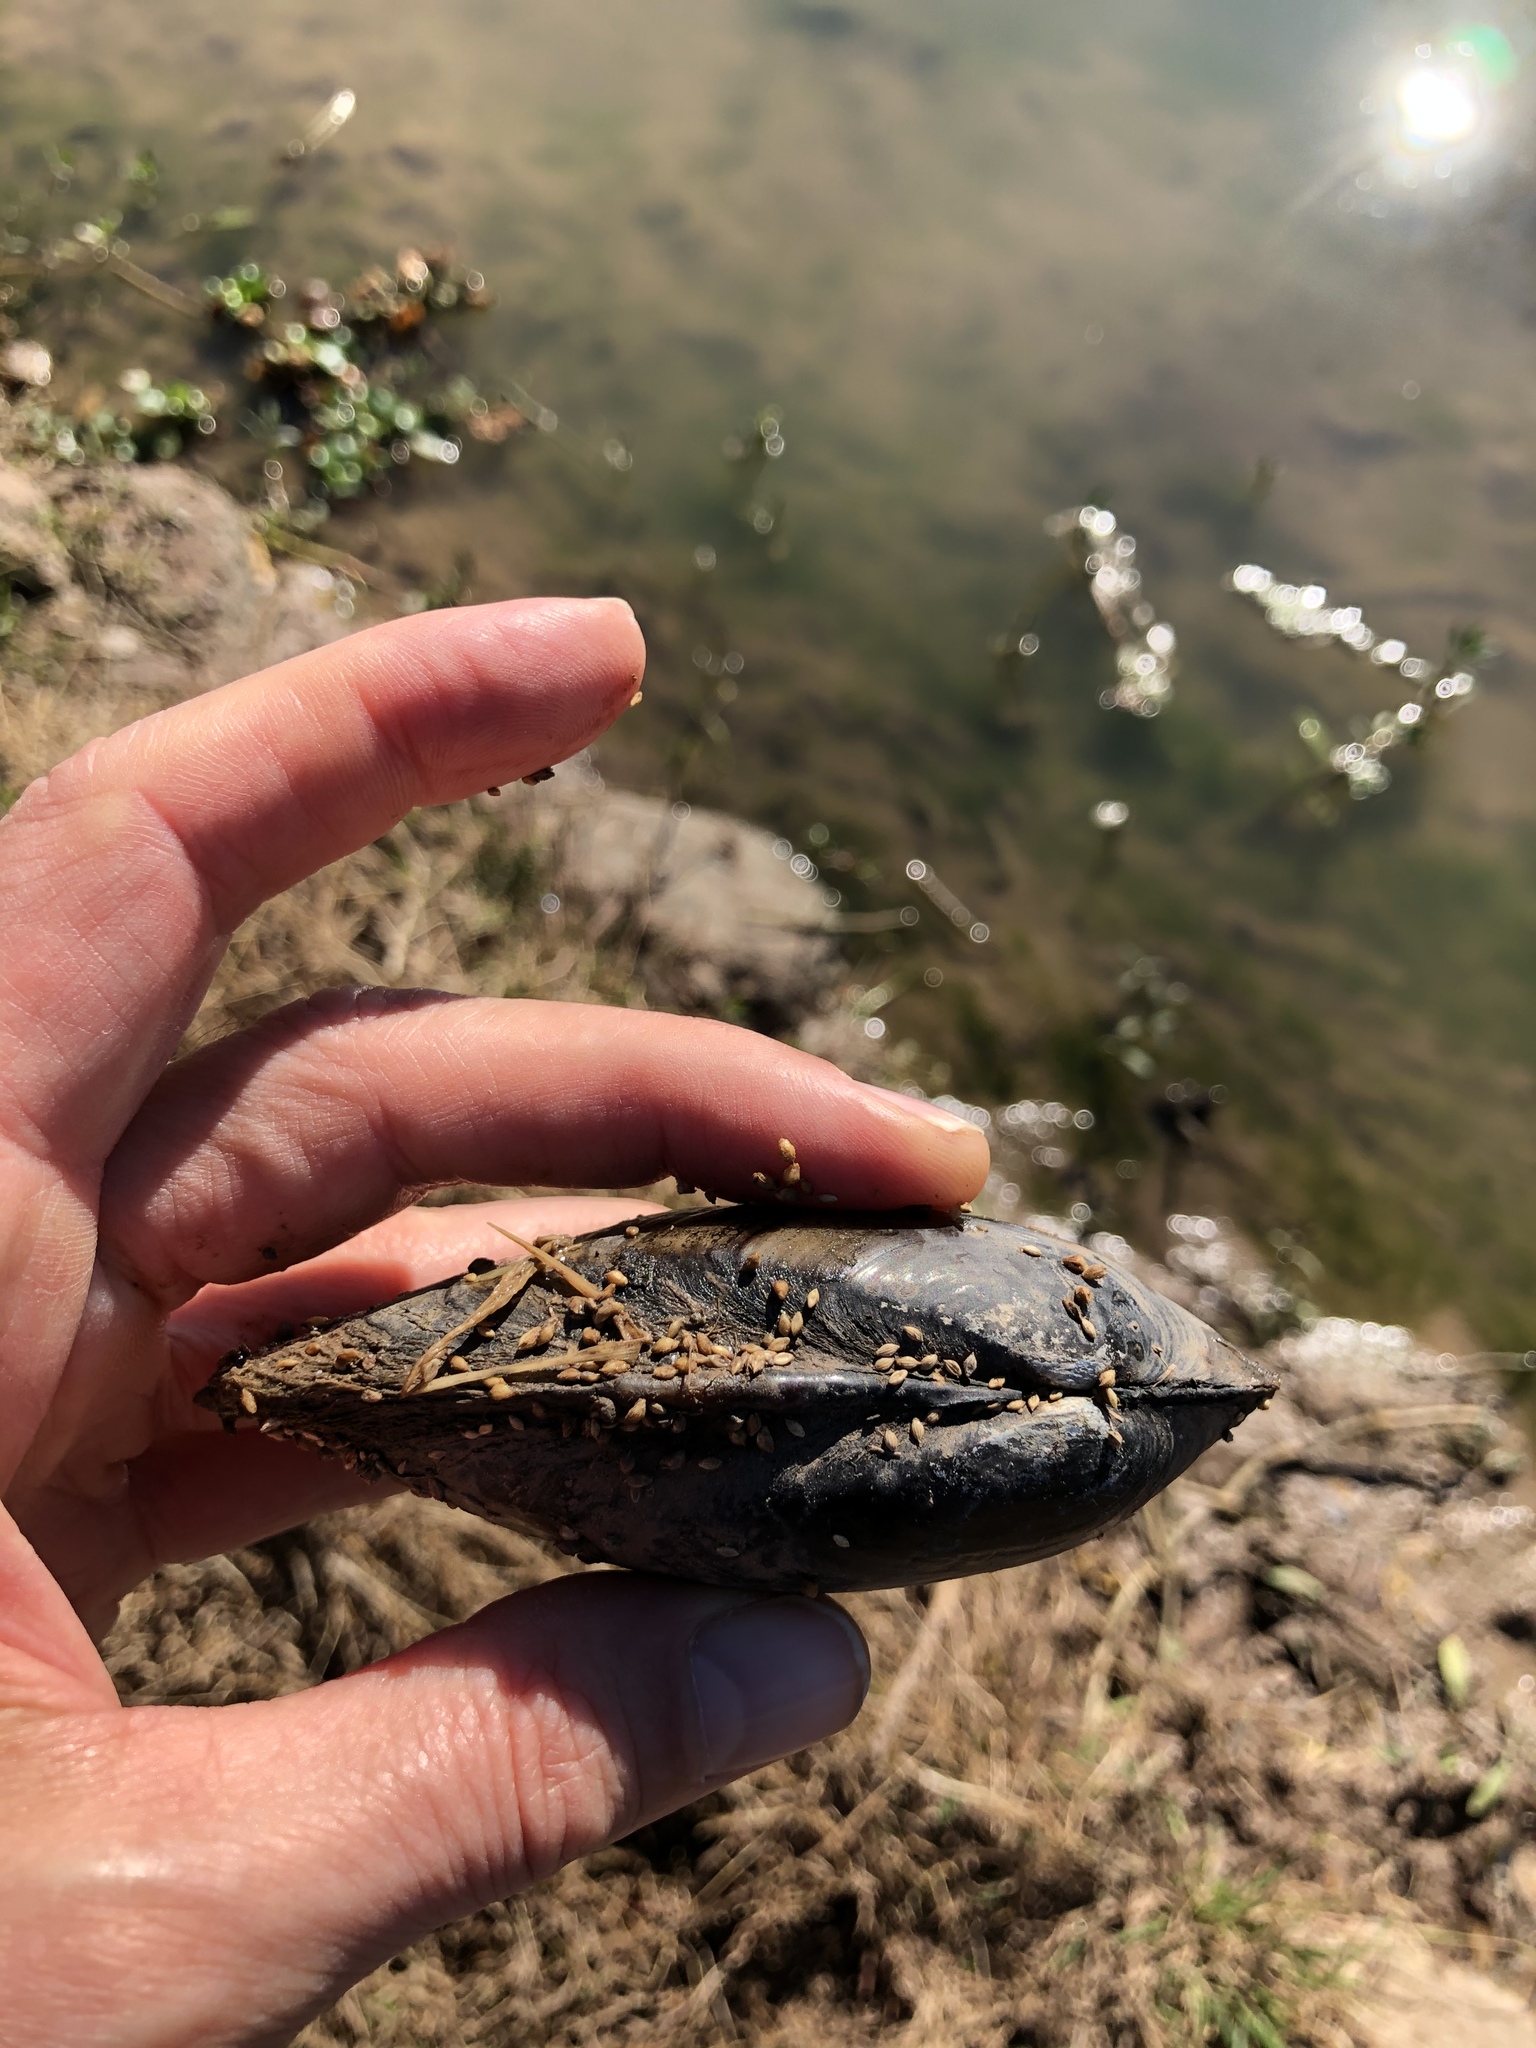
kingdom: Animalia
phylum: Mollusca
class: Bivalvia
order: Unionida
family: Unionidae
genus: Lampsilis
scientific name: Lampsilis teres
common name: Yellow sandshell
